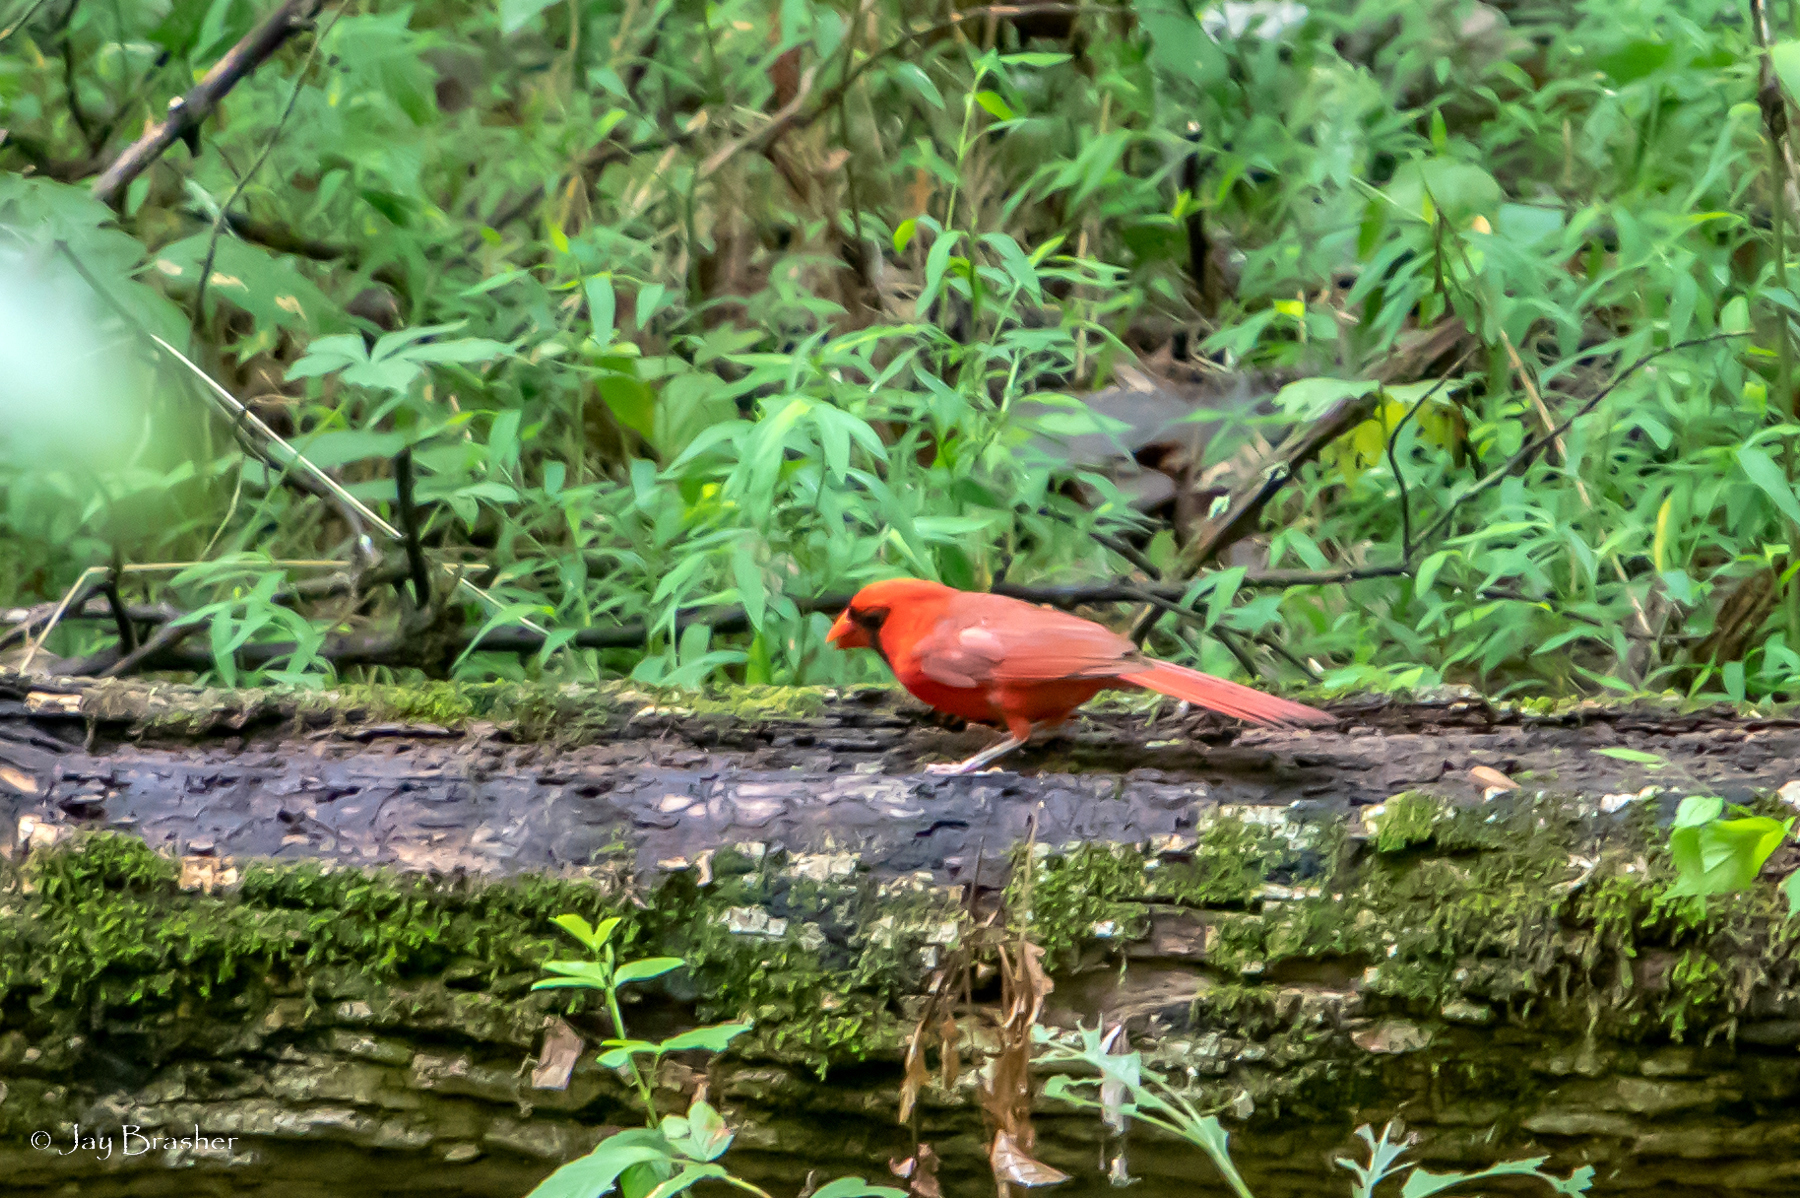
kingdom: Animalia
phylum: Chordata
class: Aves
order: Passeriformes
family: Cardinalidae
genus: Cardinalis
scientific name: Cardinalis cardinalis
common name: Northern cardinal
